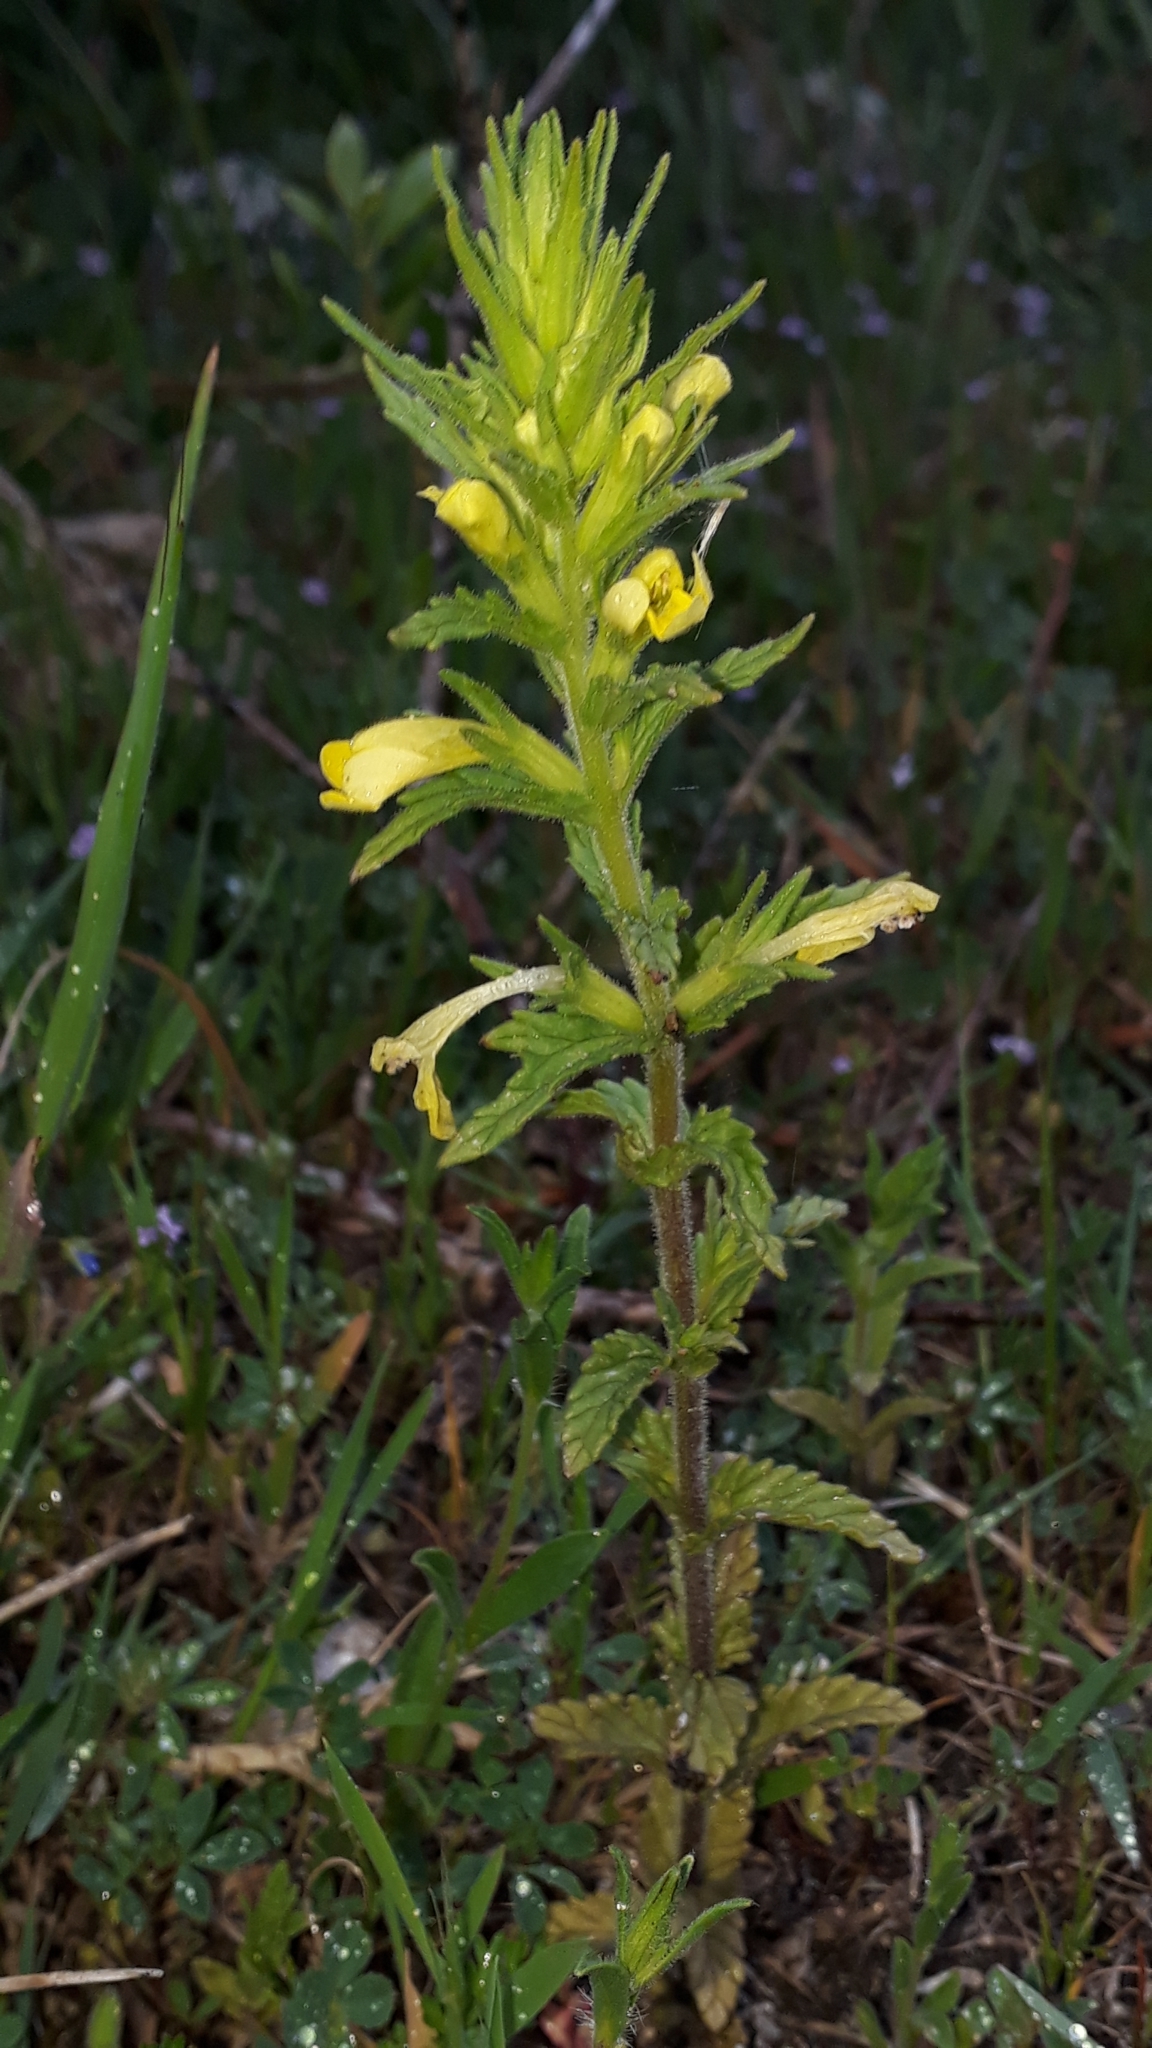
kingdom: Plantae
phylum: Tracheophyta
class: Magnoliopsida
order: Lamiales
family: Orobanchaceae
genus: Bellardia
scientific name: Bellardia viscosa
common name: Sticky parentucellia
